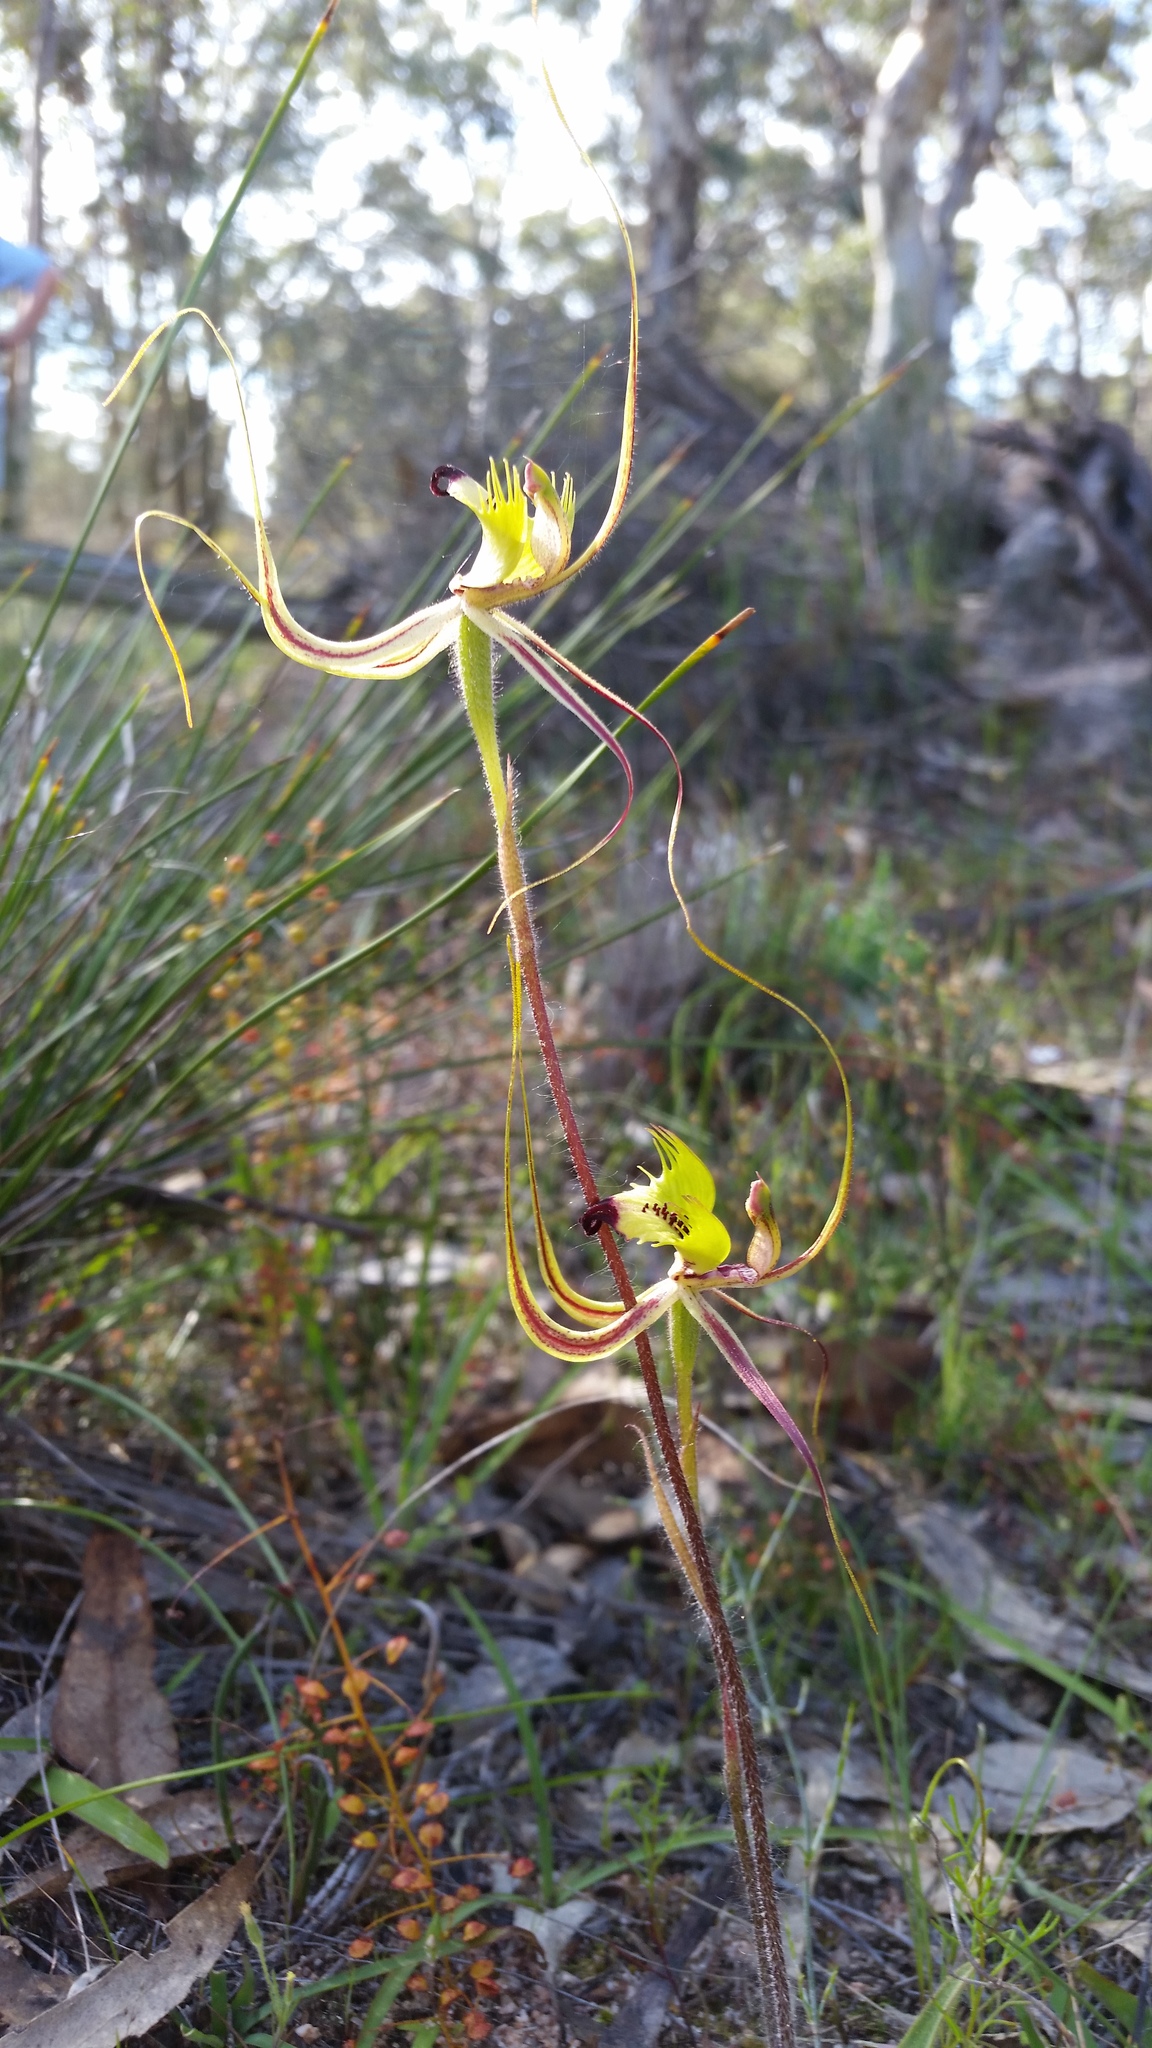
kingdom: Plantae
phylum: Tracheophyta
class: Liliopsida
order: Asparagales
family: Orchidaceae
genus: Caladenia
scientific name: Caladenia falcata
